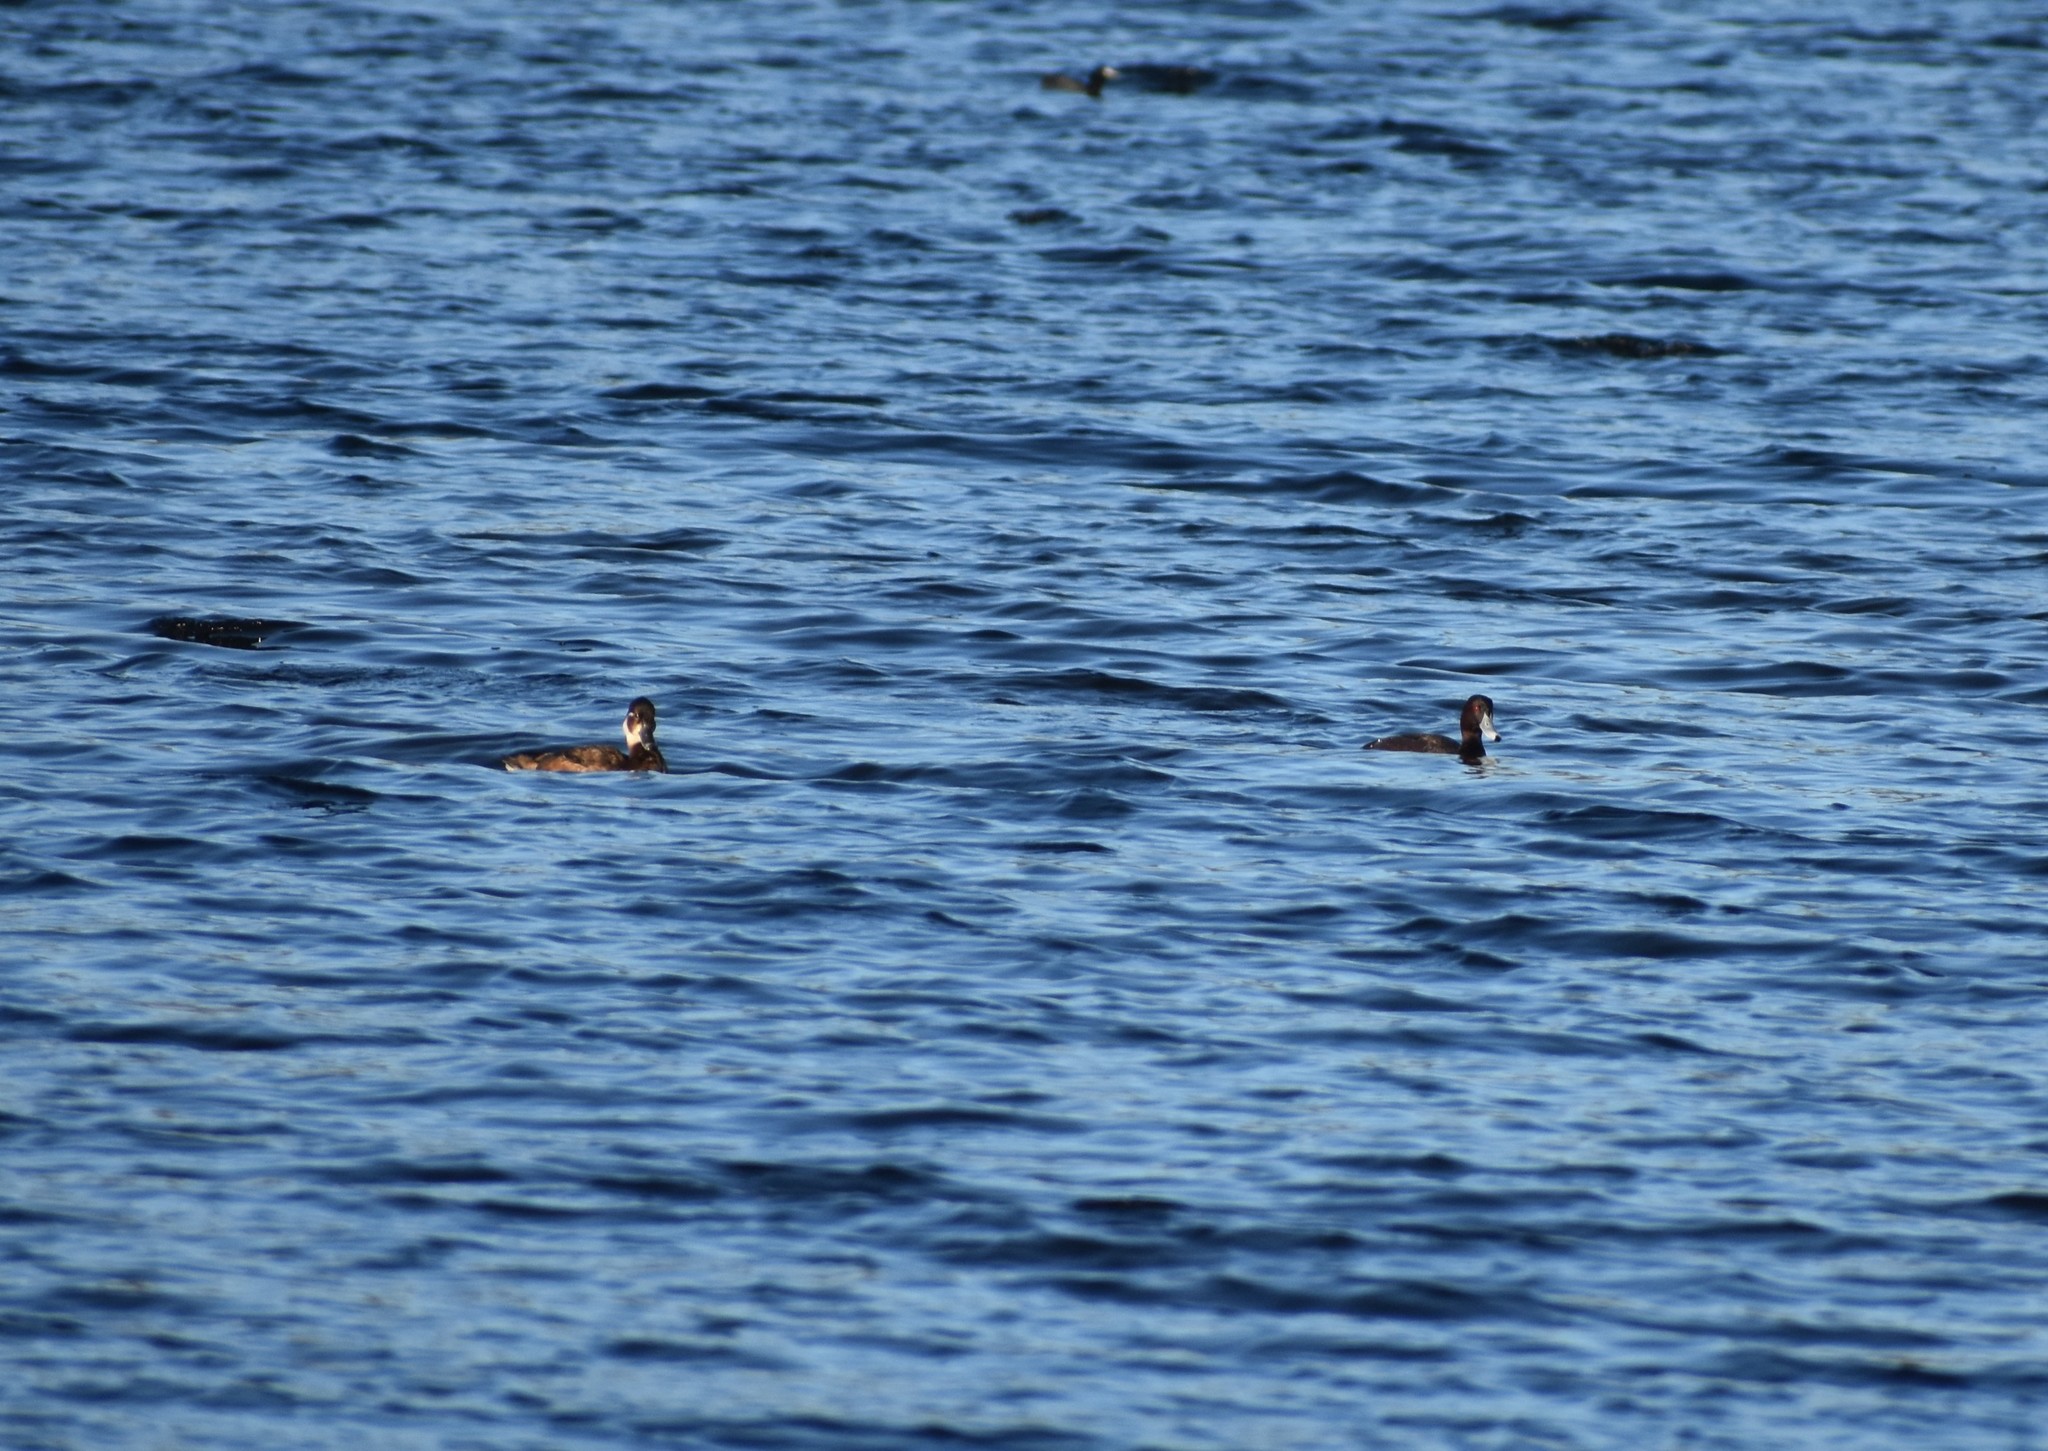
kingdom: Animalia
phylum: Chordata
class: Aves
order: Anseriformes
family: Anatidae
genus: Netta
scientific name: Netta erythrophthalma
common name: Southern pochard
